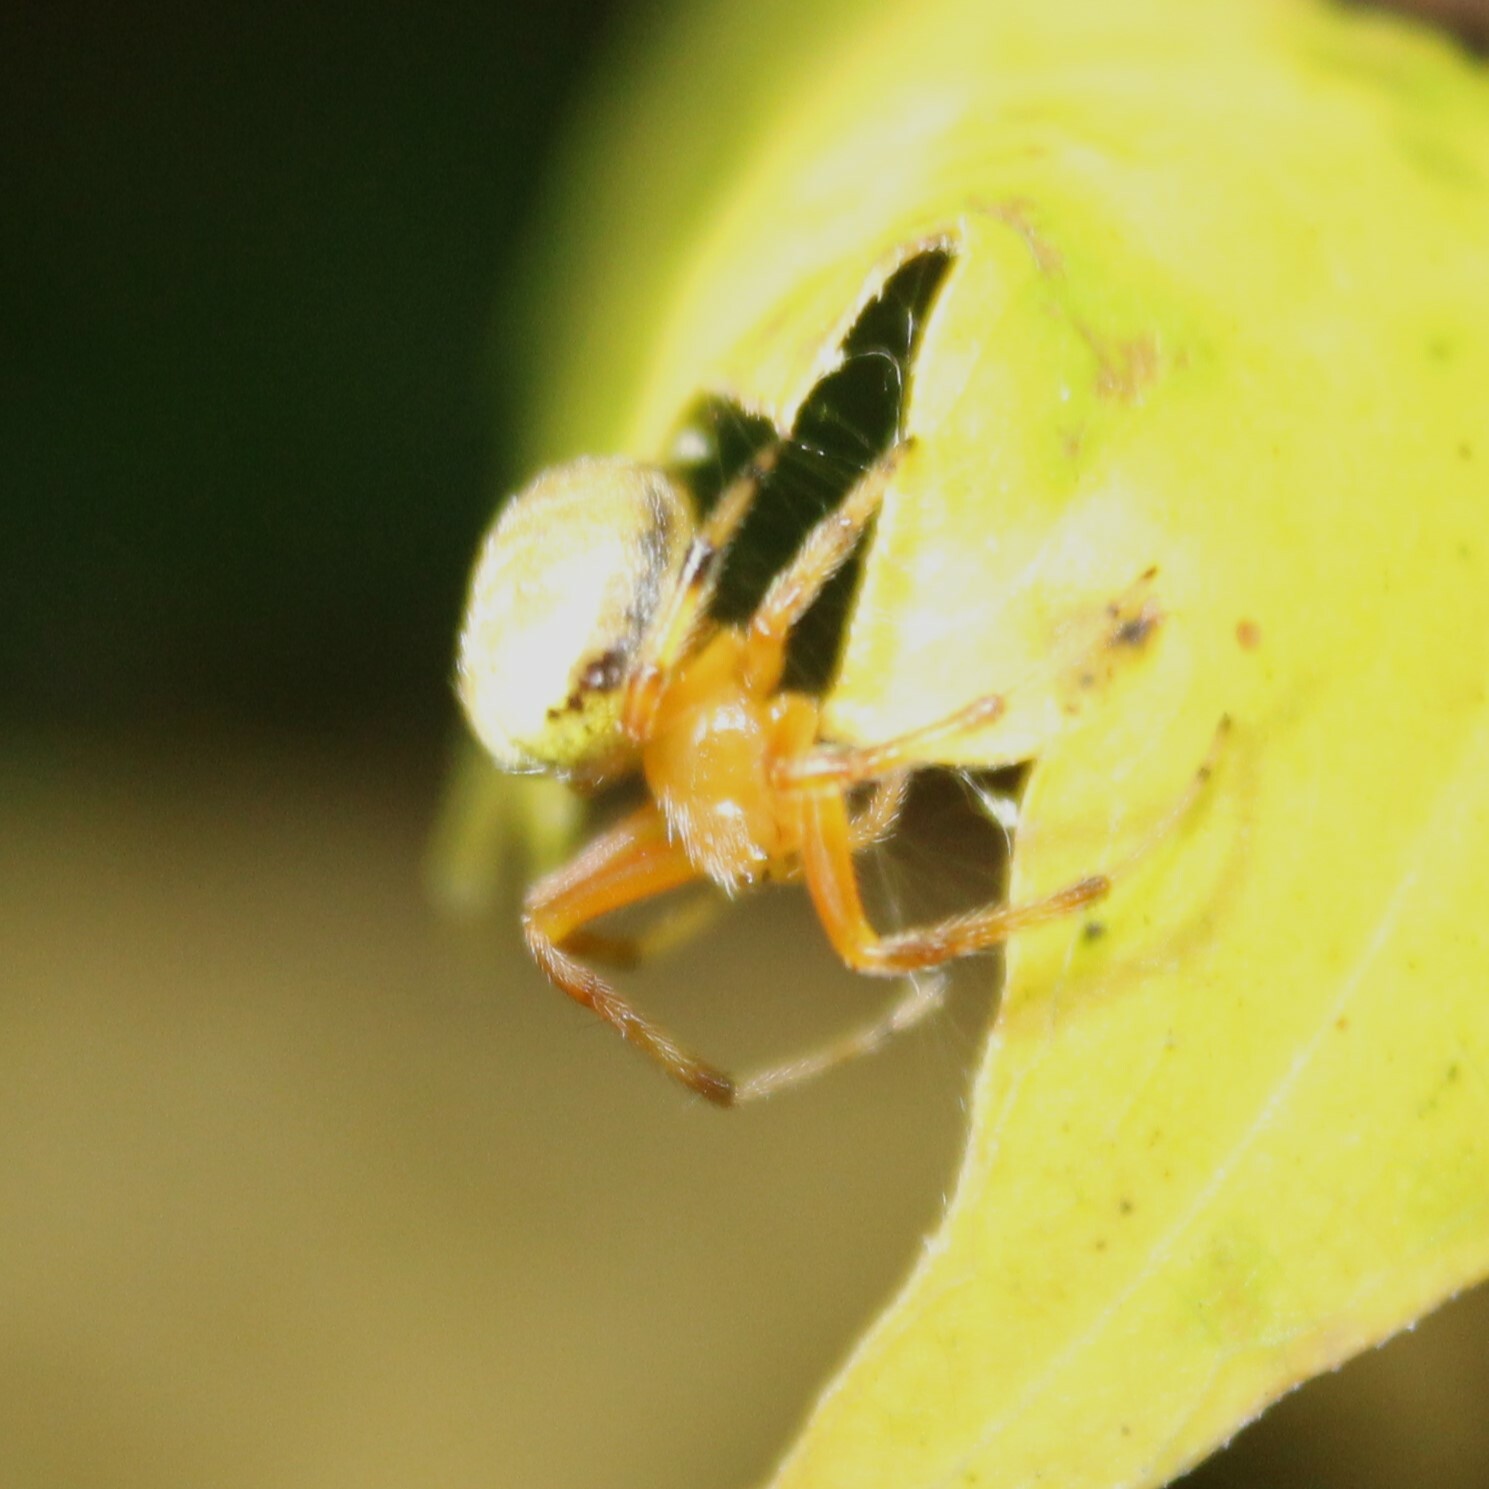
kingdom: Animalia
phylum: Arthropoda
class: Arachnida
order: Araneae
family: Araneidae
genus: Araneus
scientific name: Araneus thaddeus
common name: Lattice orbweaver
